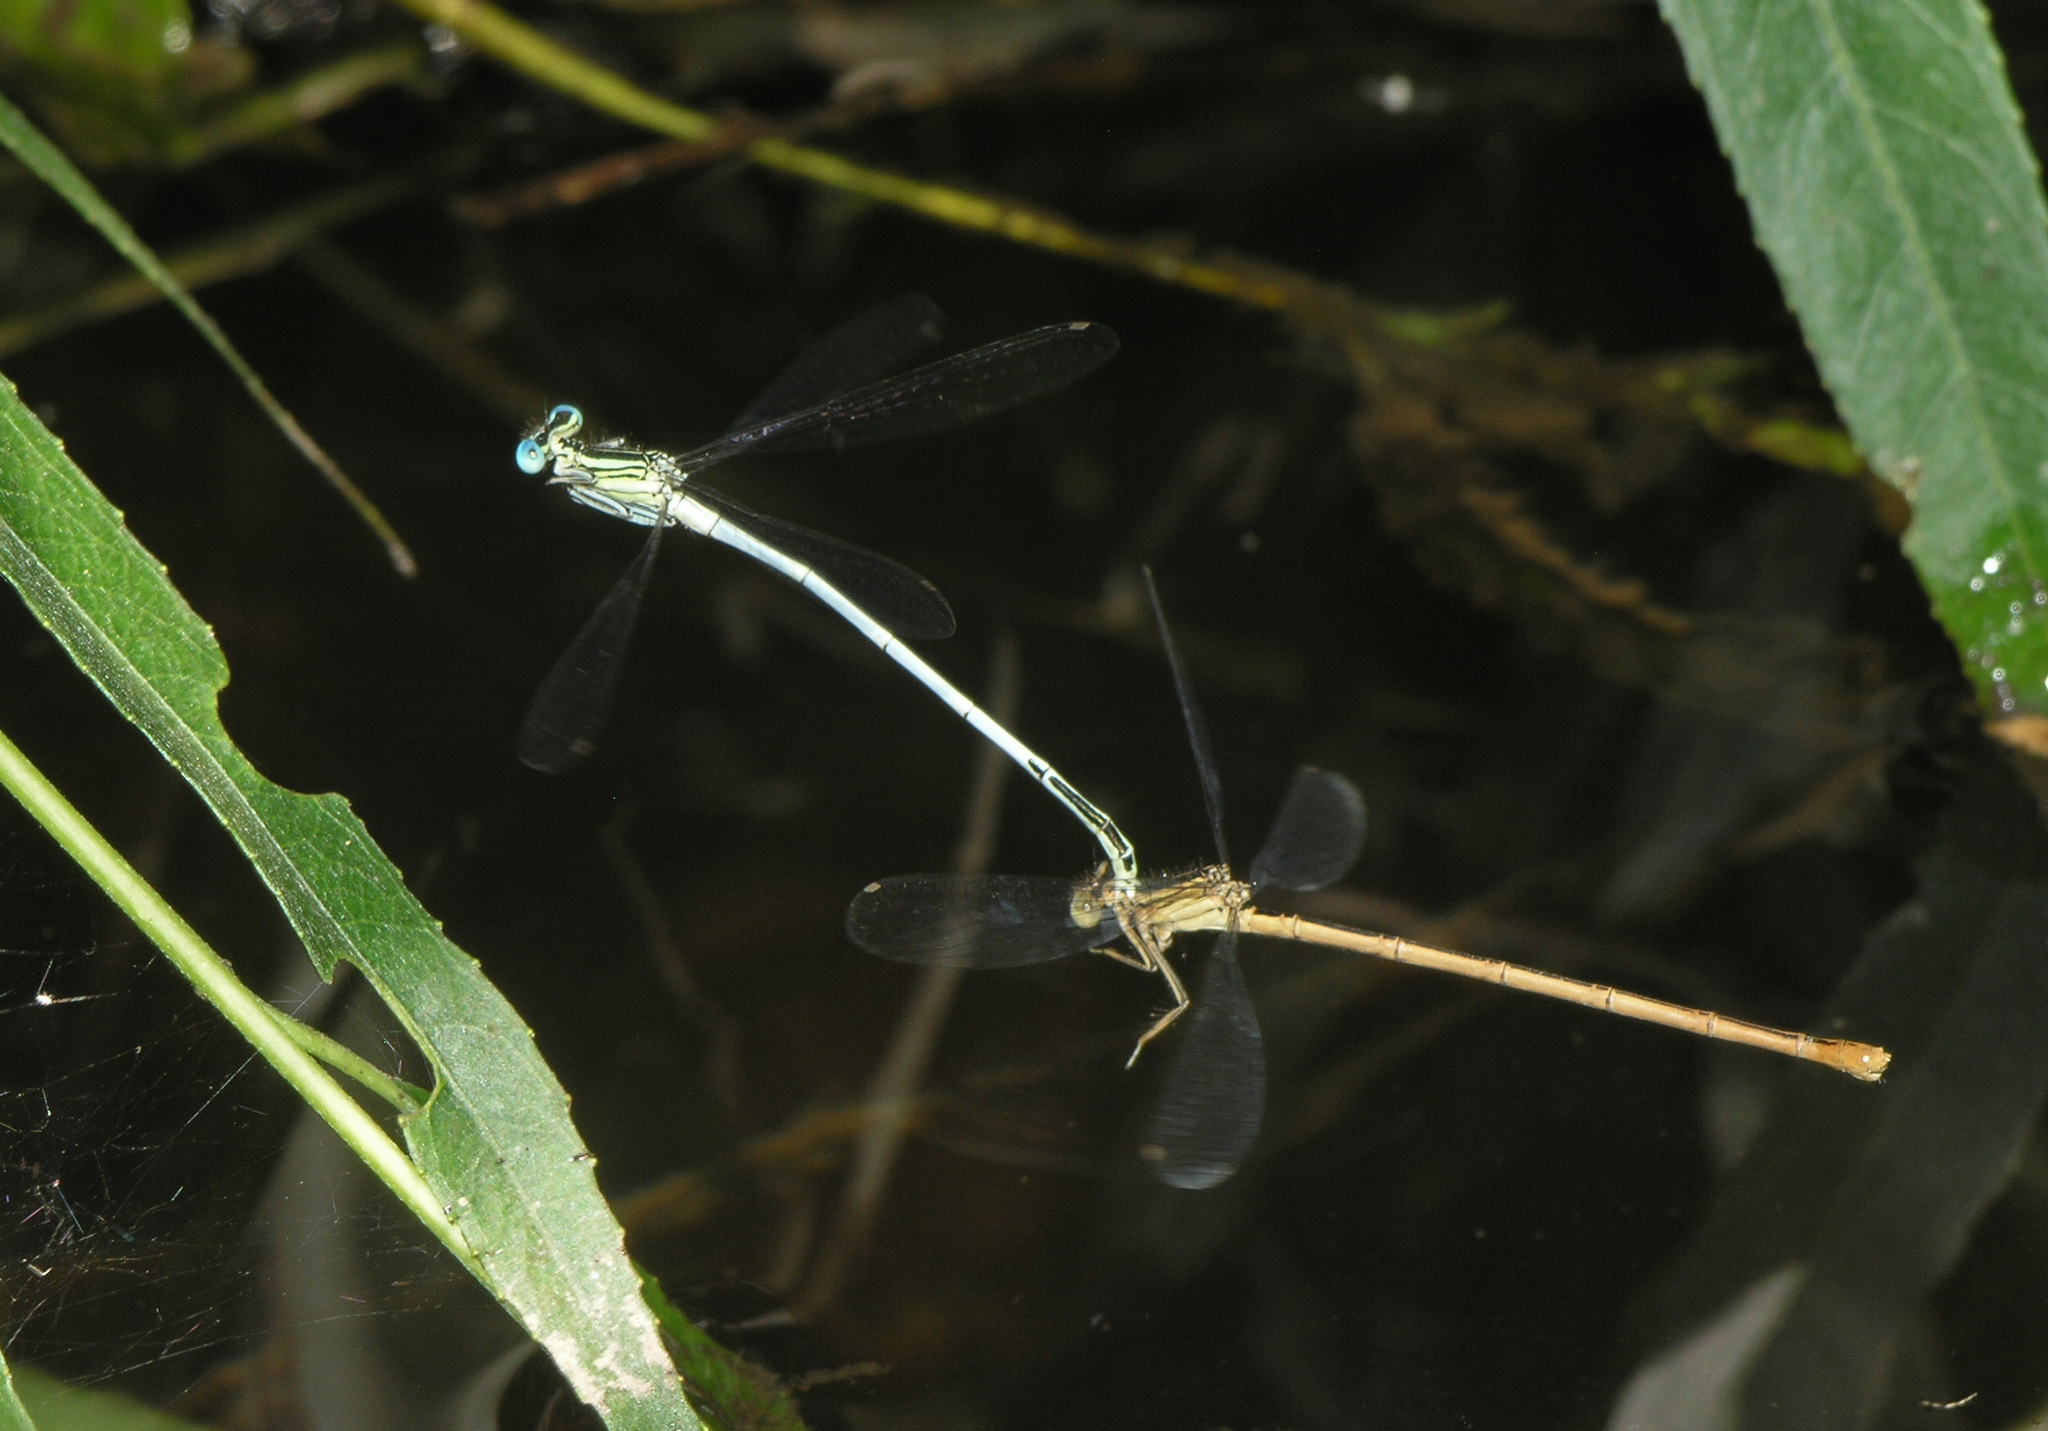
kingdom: Animalia
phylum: Arthropoda
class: Insecta
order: Odonata
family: Platycnemididae
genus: Platycnemis
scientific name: Platycnemis latipes
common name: White featherleg
